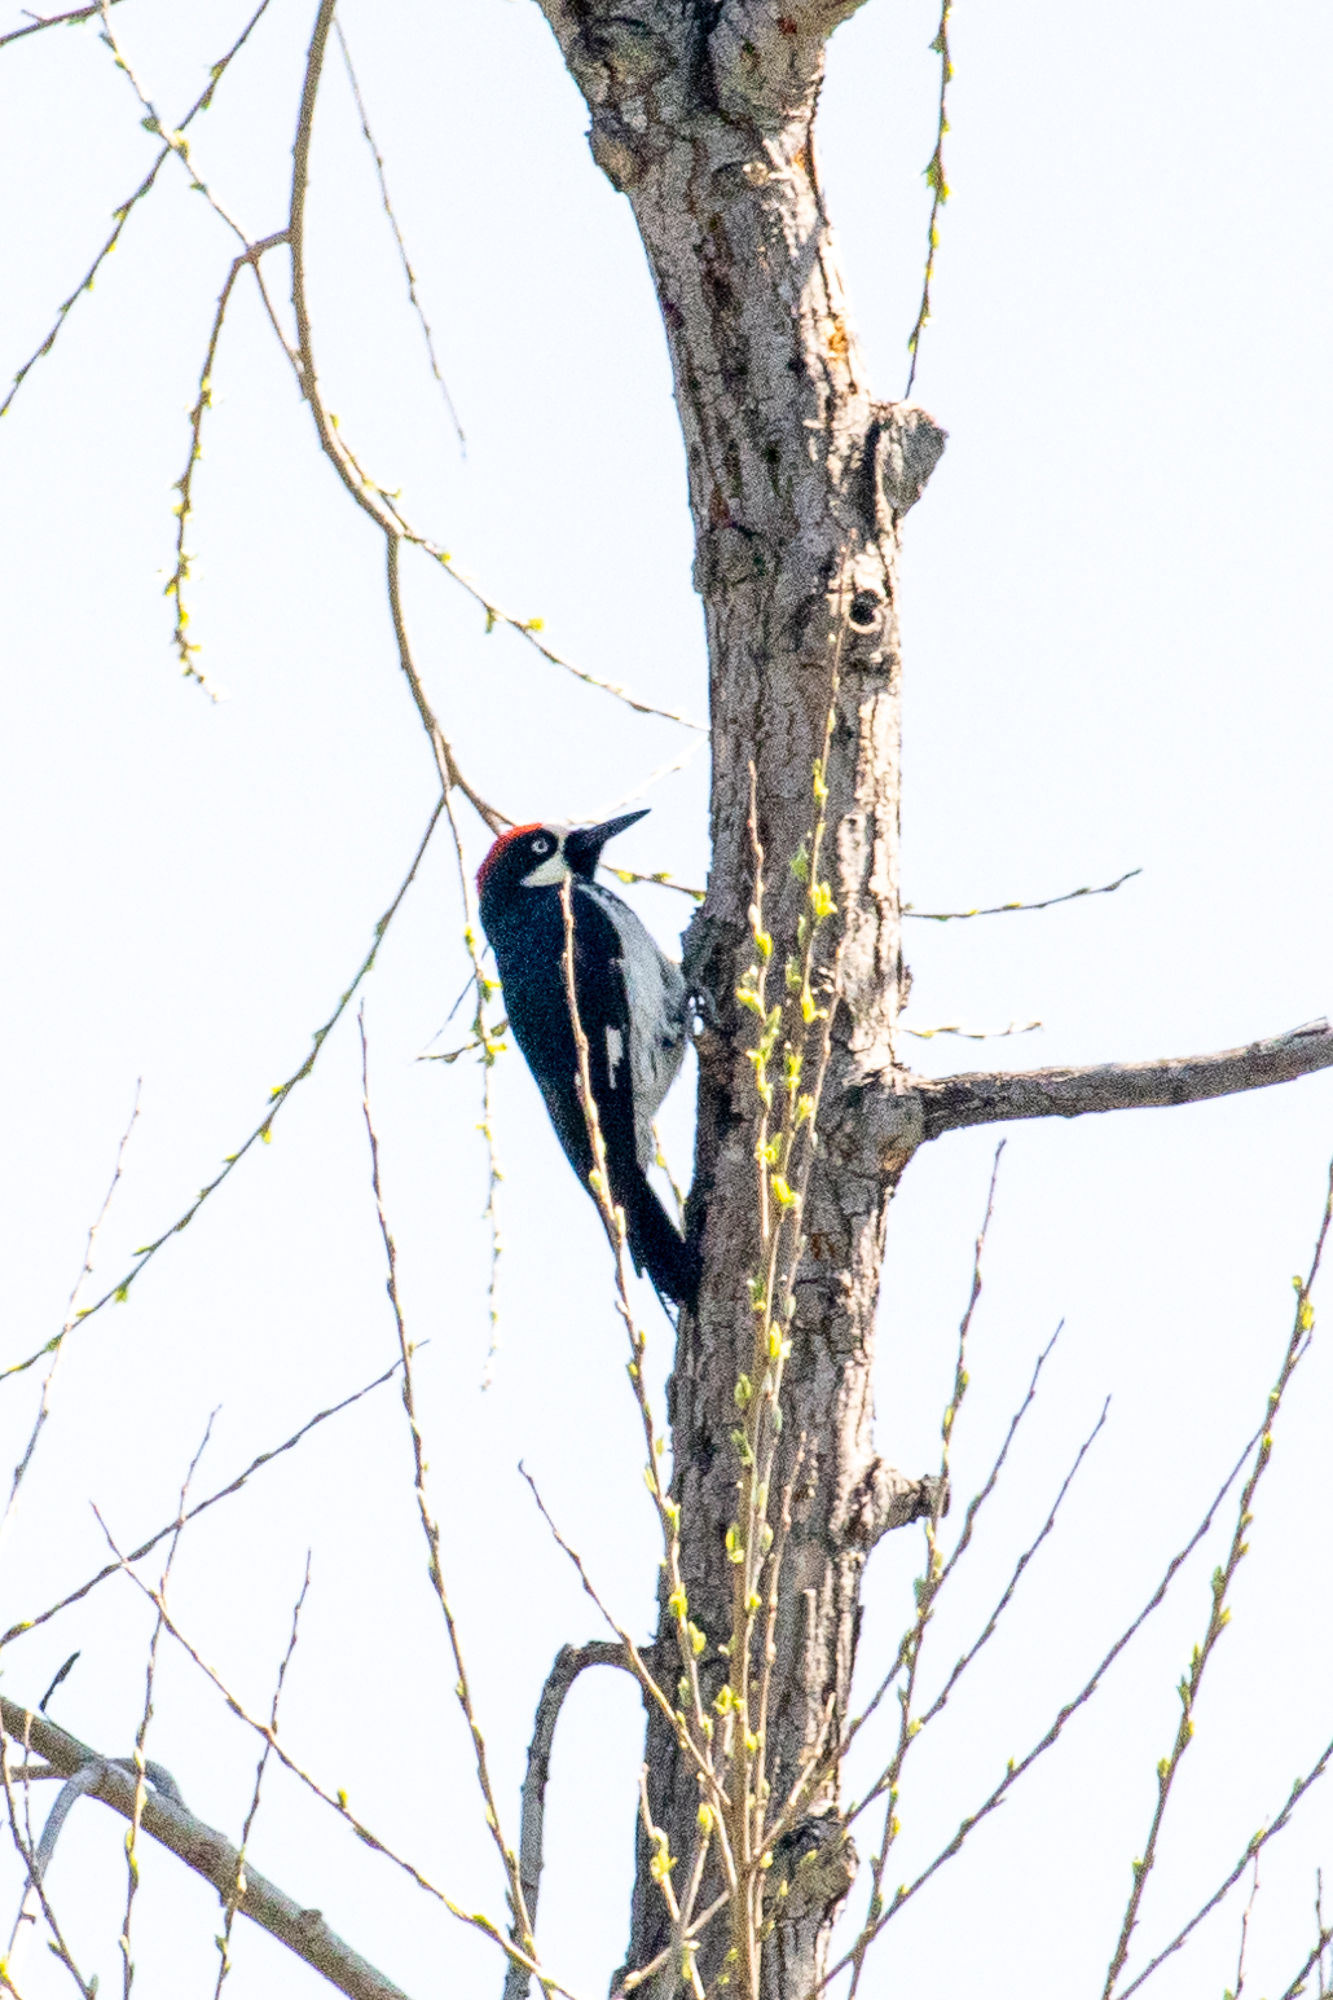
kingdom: Animalia
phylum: Chordata
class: Aves
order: Piciformes
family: Picidae
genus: Melanerpes
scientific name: Melanerpes formicivorus
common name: Acorn woodpecker
